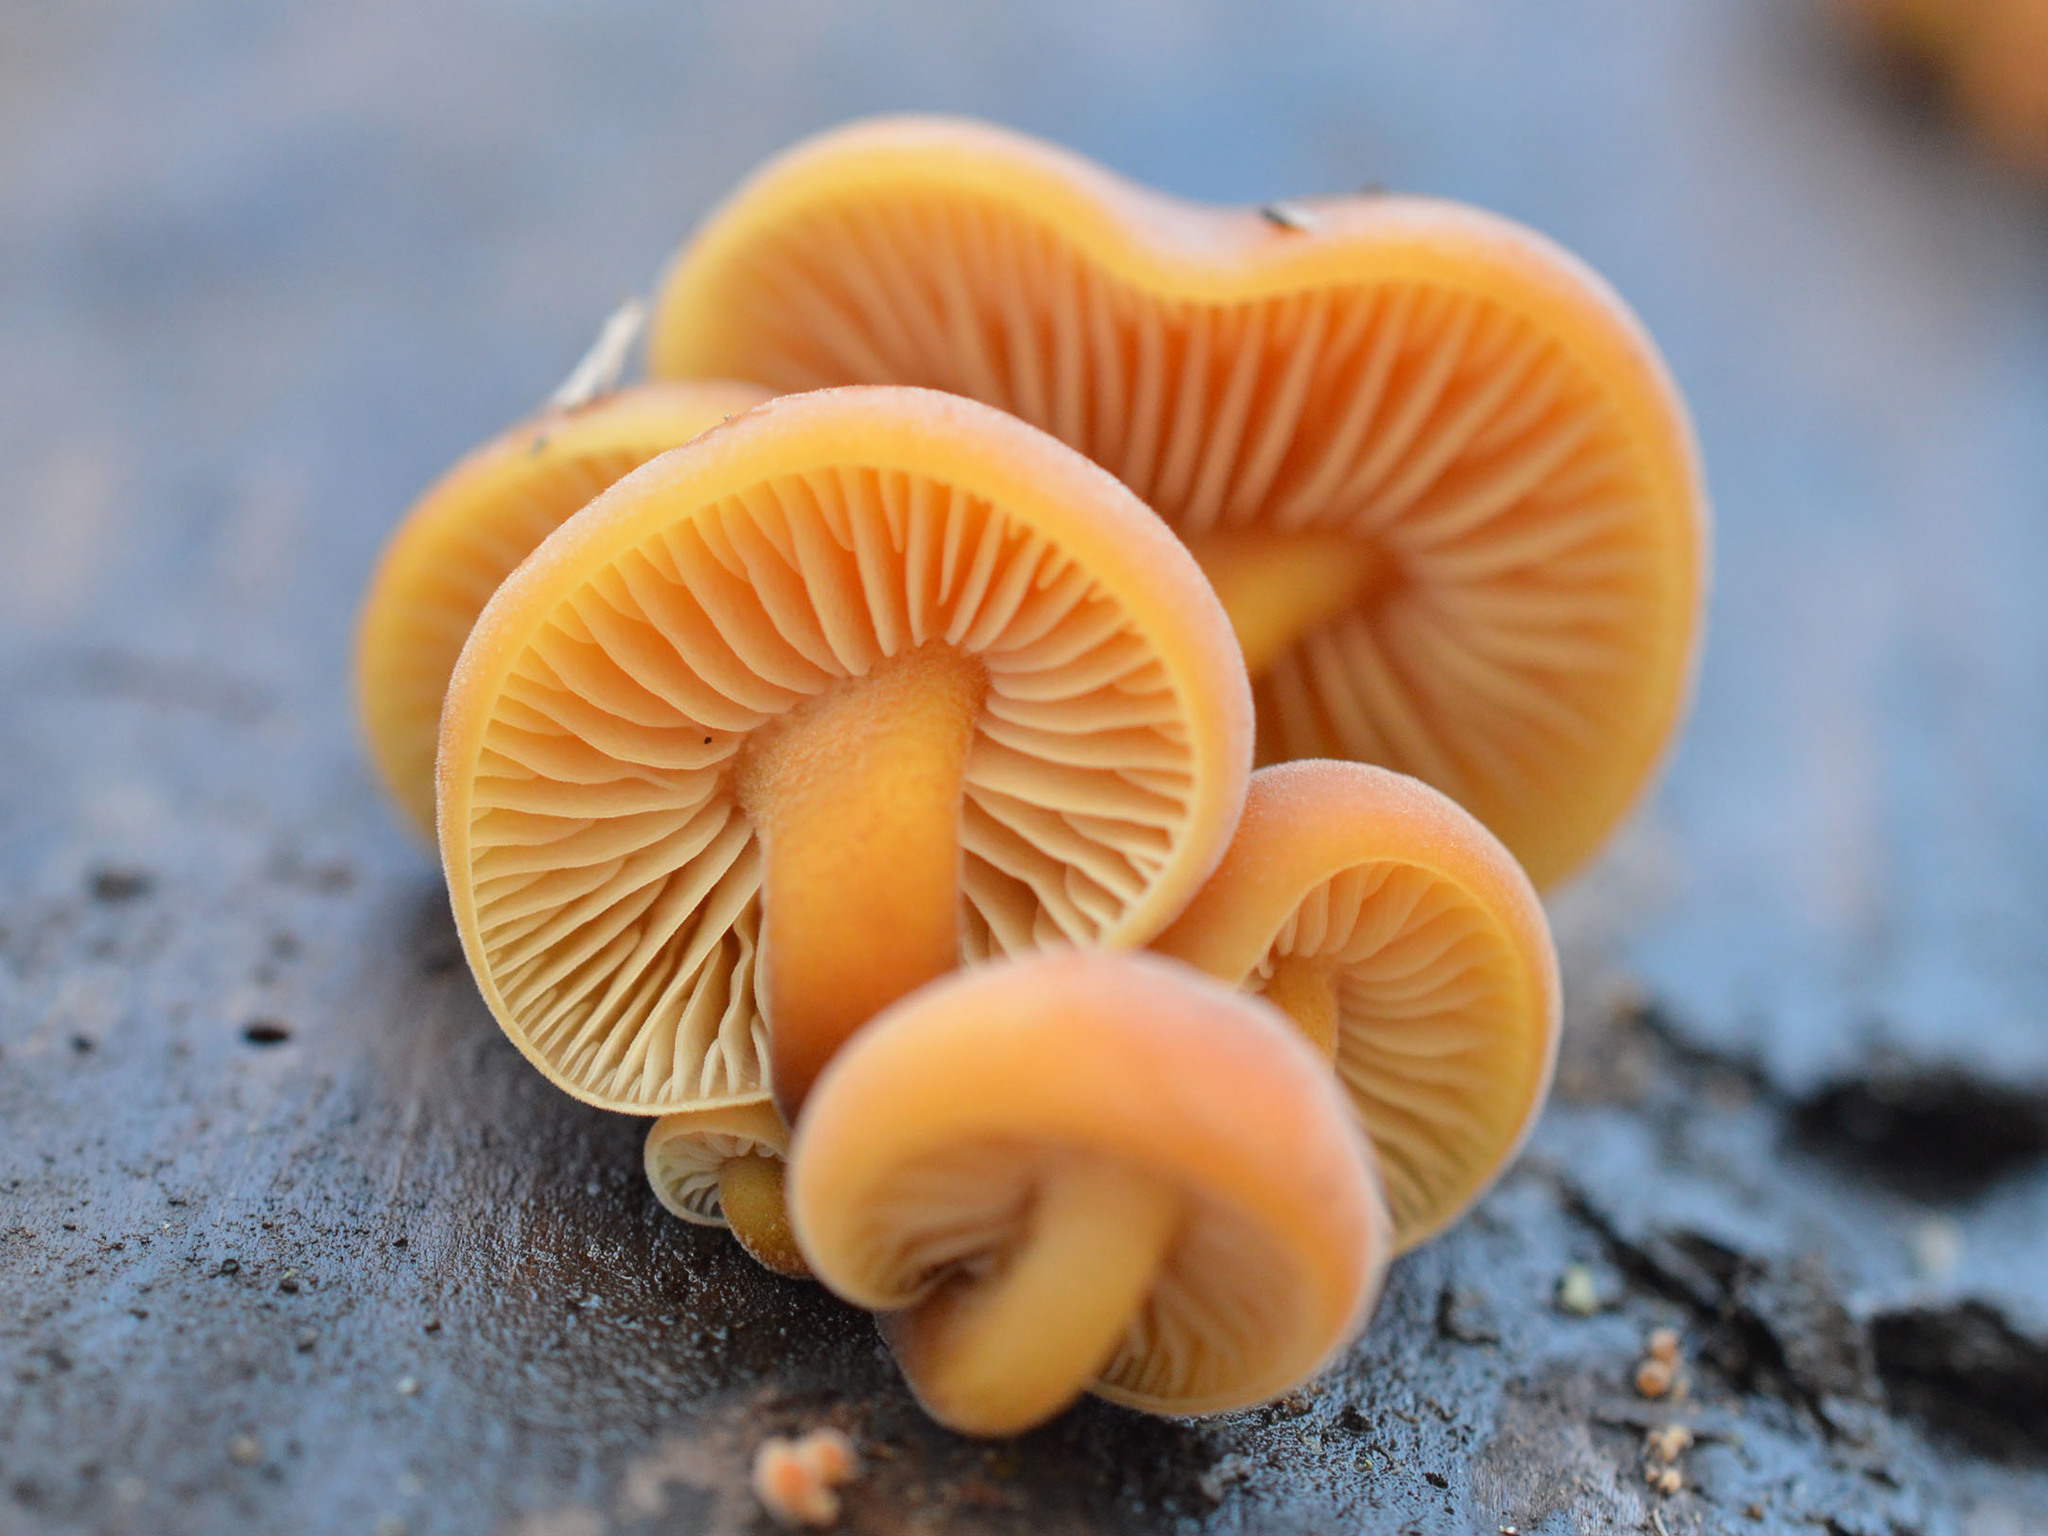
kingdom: Fungi
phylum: Basidiomycota
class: Agaricomycetes
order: Agaricales
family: Physalacriaceae
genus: Flammulina
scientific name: Flammulina
